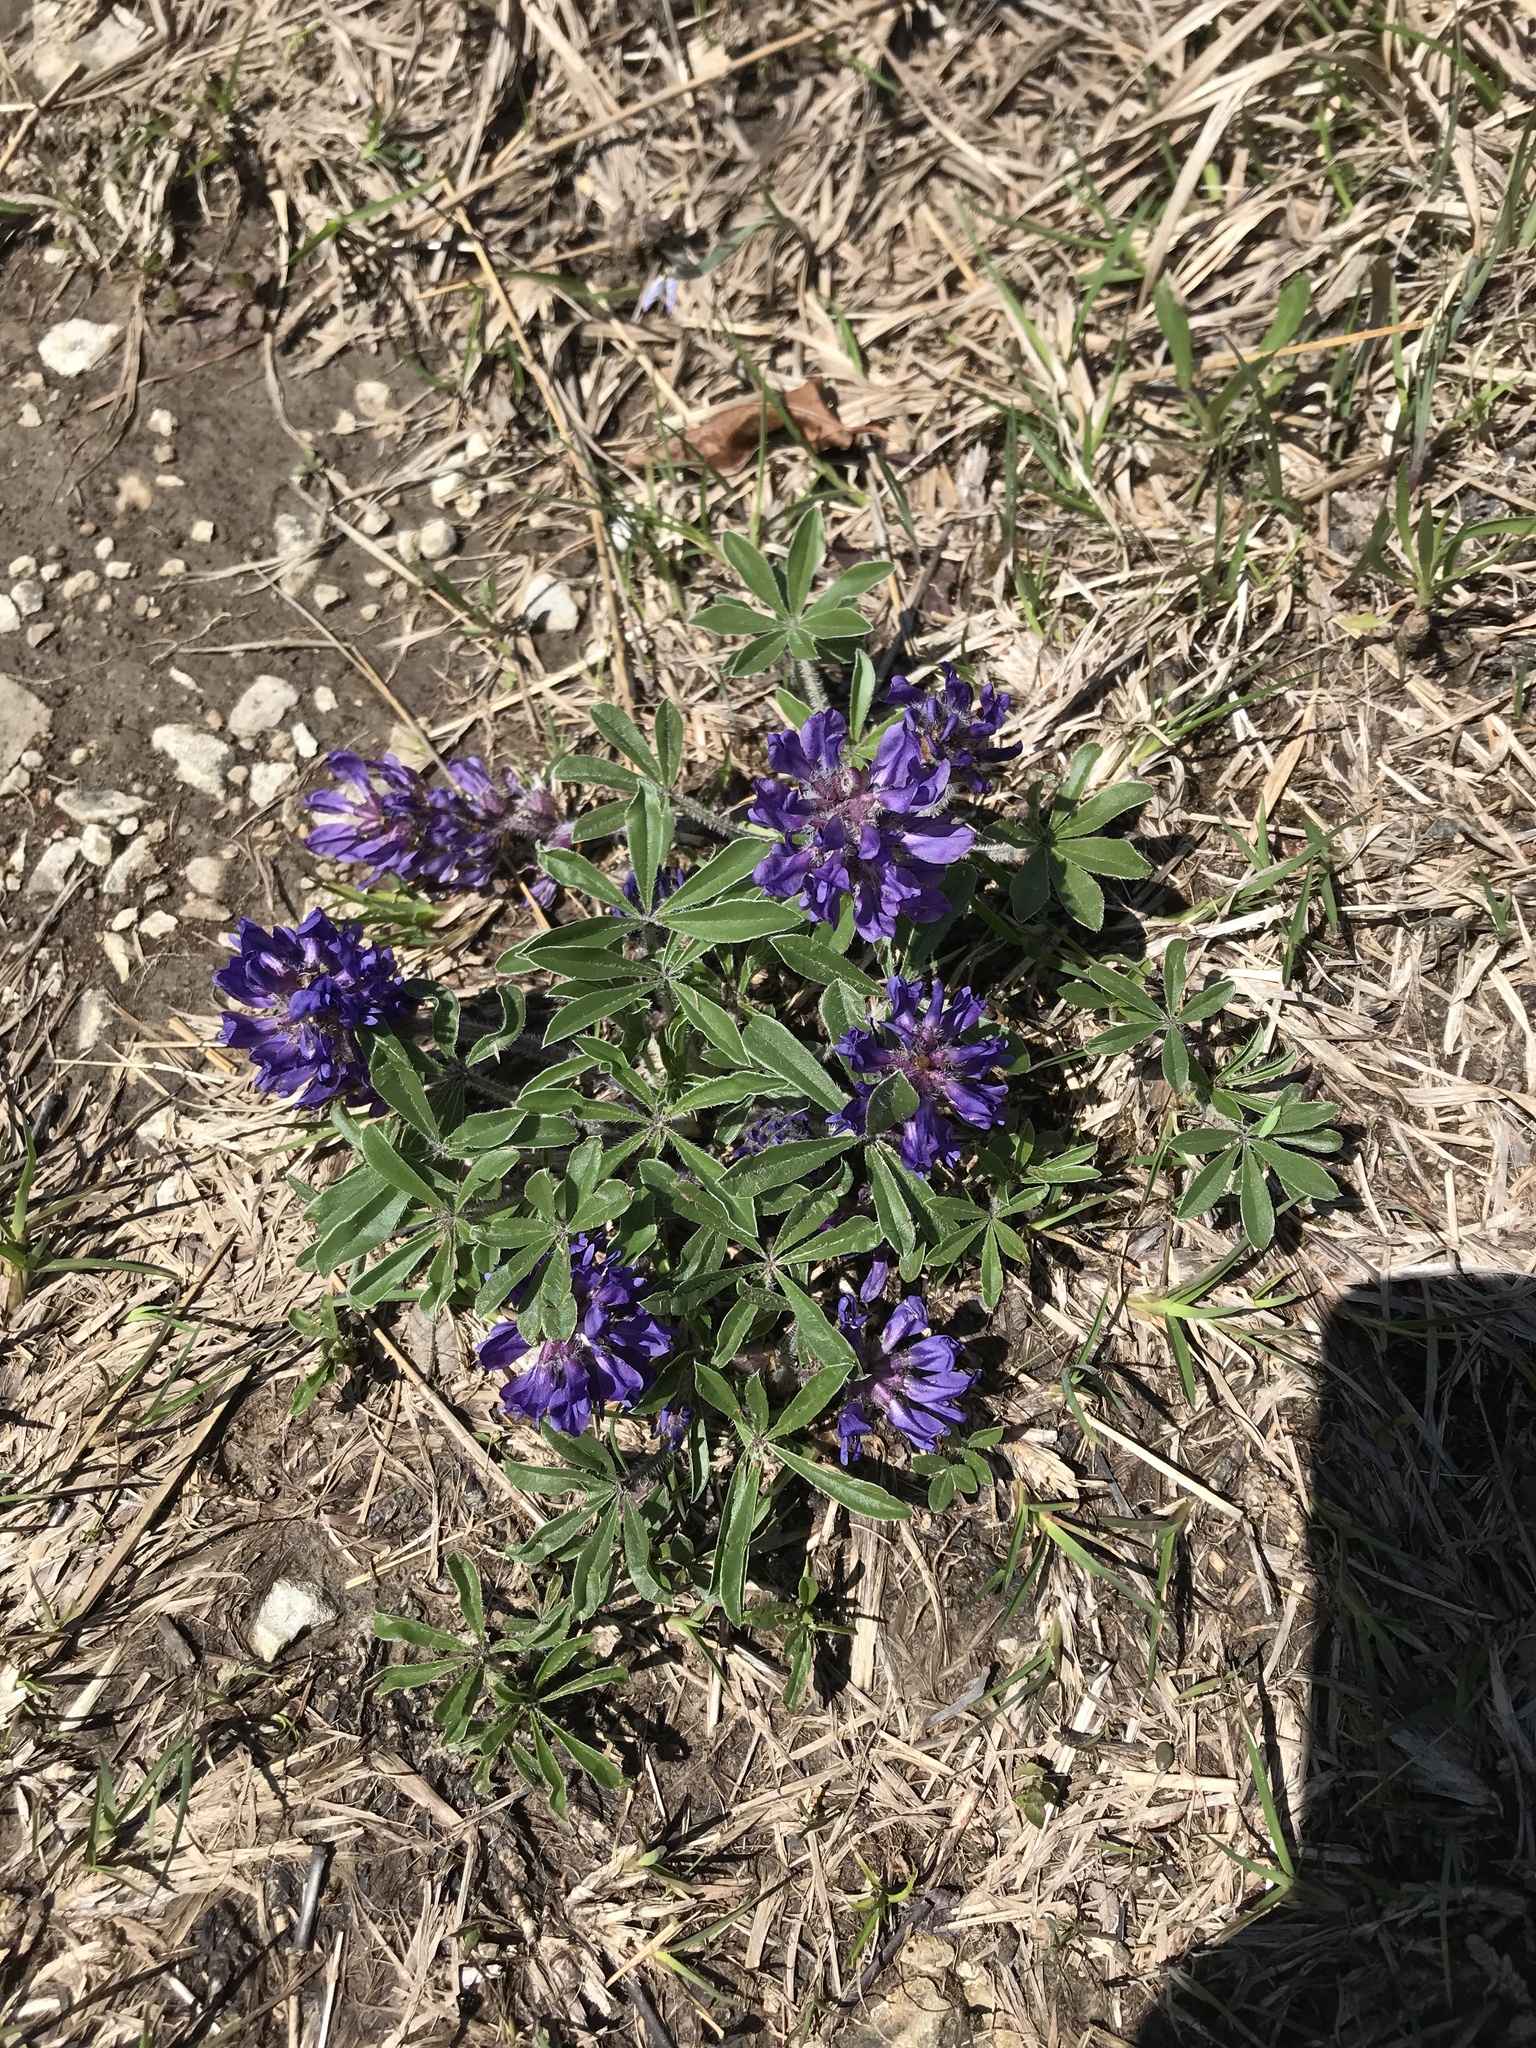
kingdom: Plantae
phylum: Tracheophyta
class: Magnoliopsida
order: Fabales
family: Fabaceae
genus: Pediomelum
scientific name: Pediomelum subacaule
